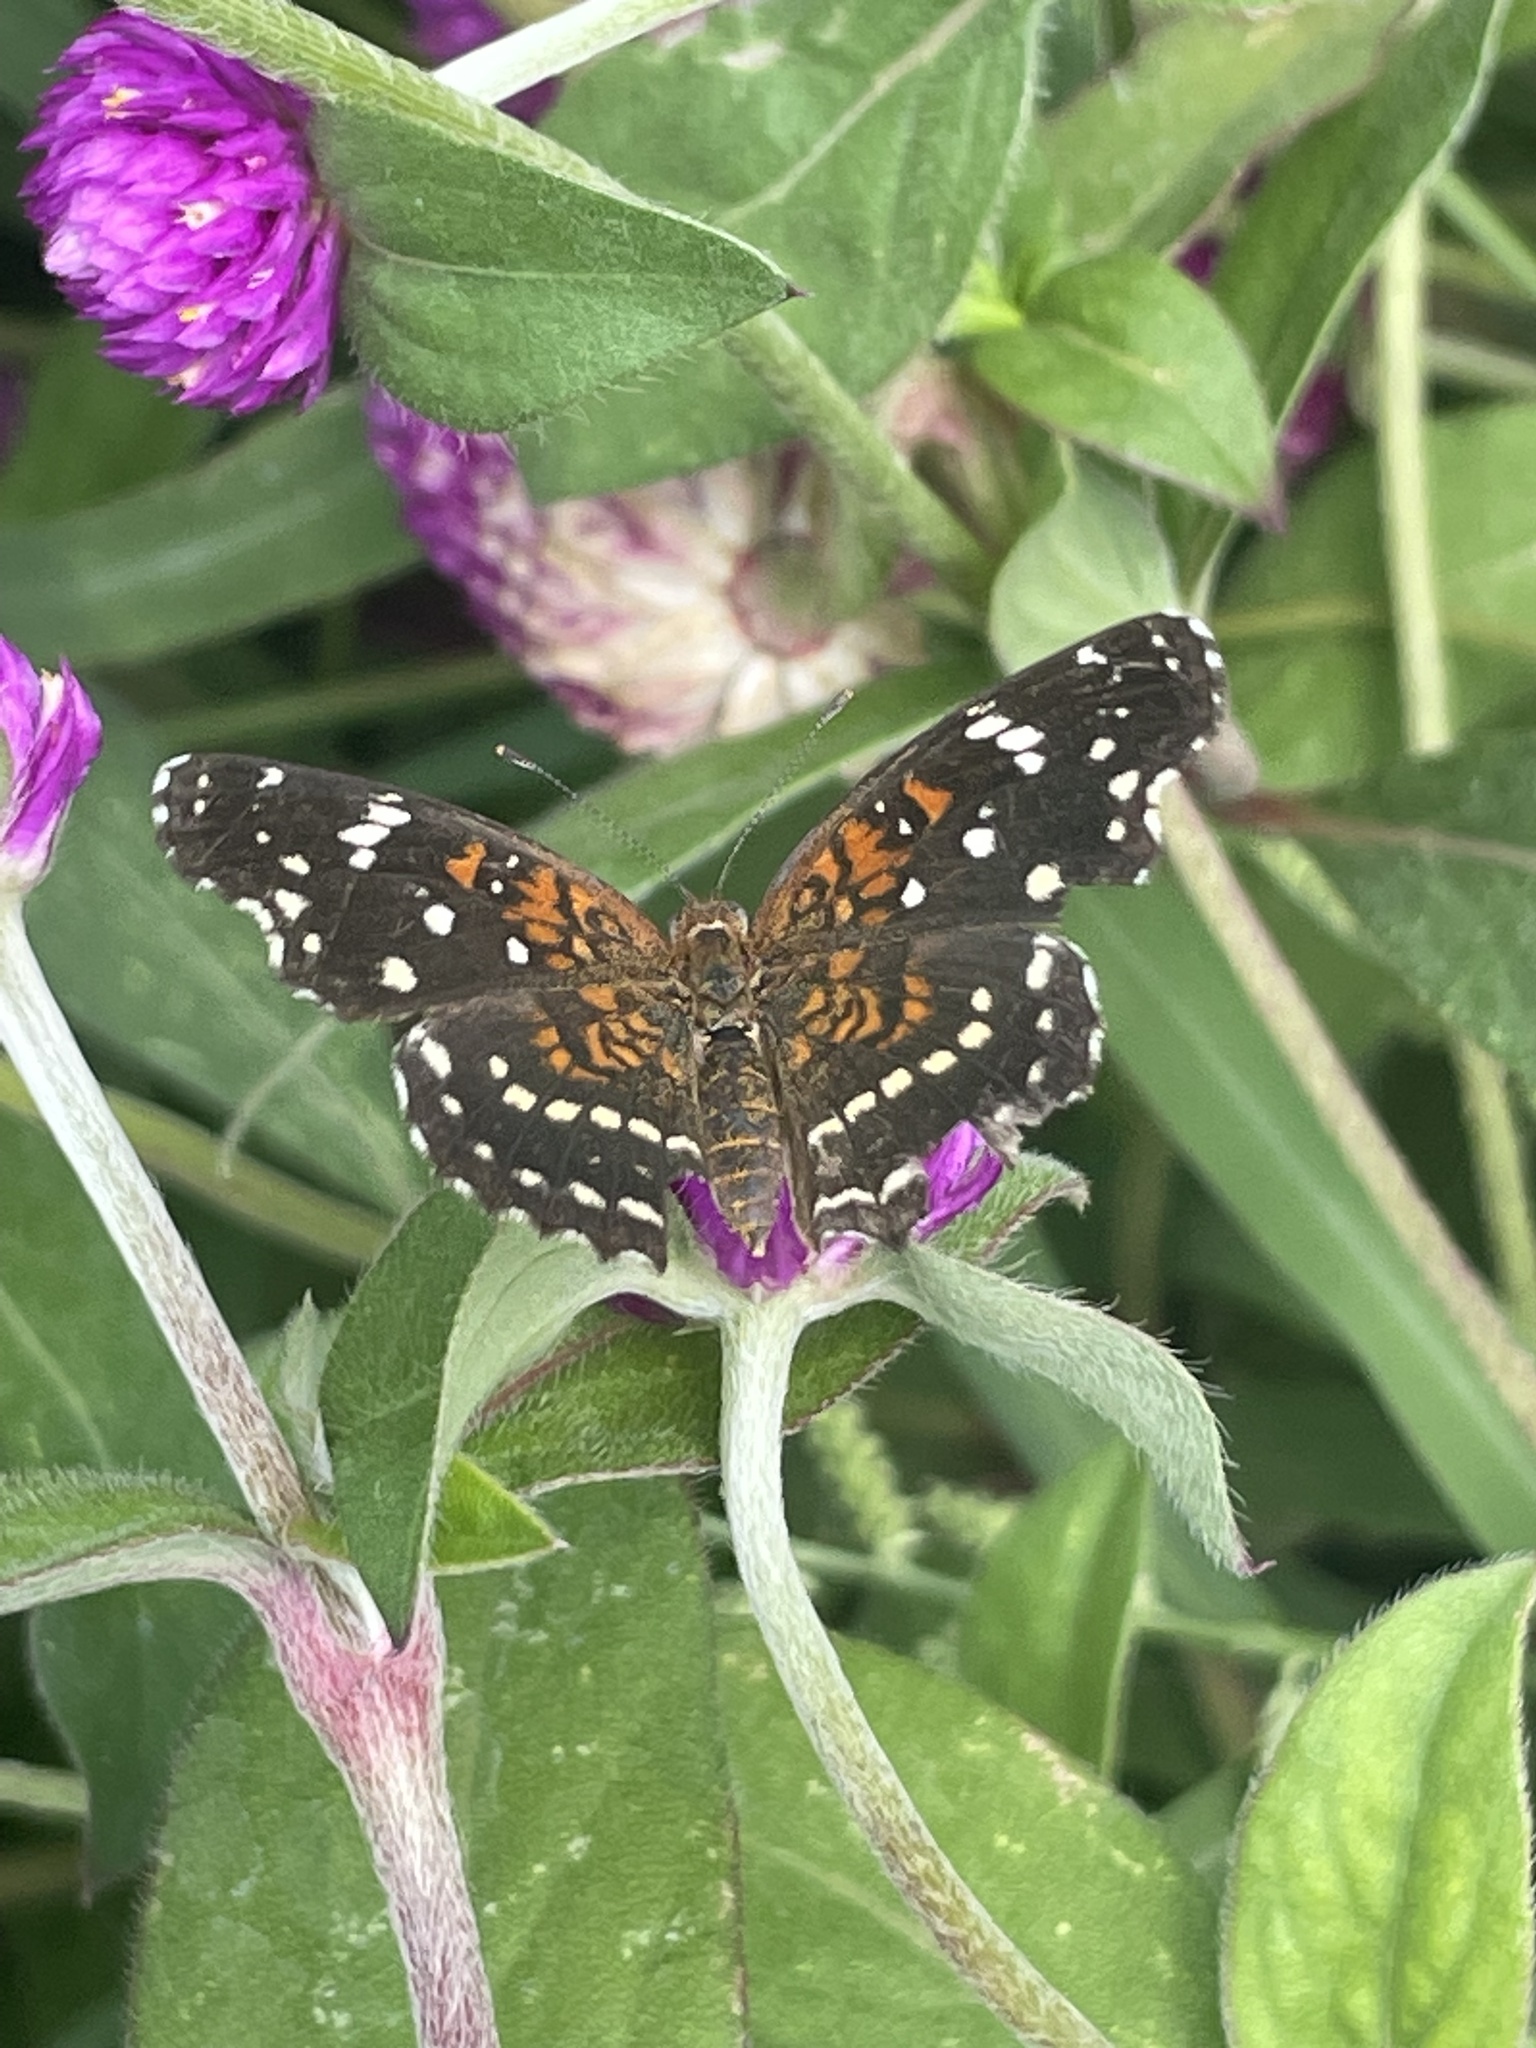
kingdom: Animalia
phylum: Arthropoda
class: Insecta
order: Lepidoptera
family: Nymphalidae
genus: Anthanassa
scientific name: Anthanassa texana
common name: Texan crescent
